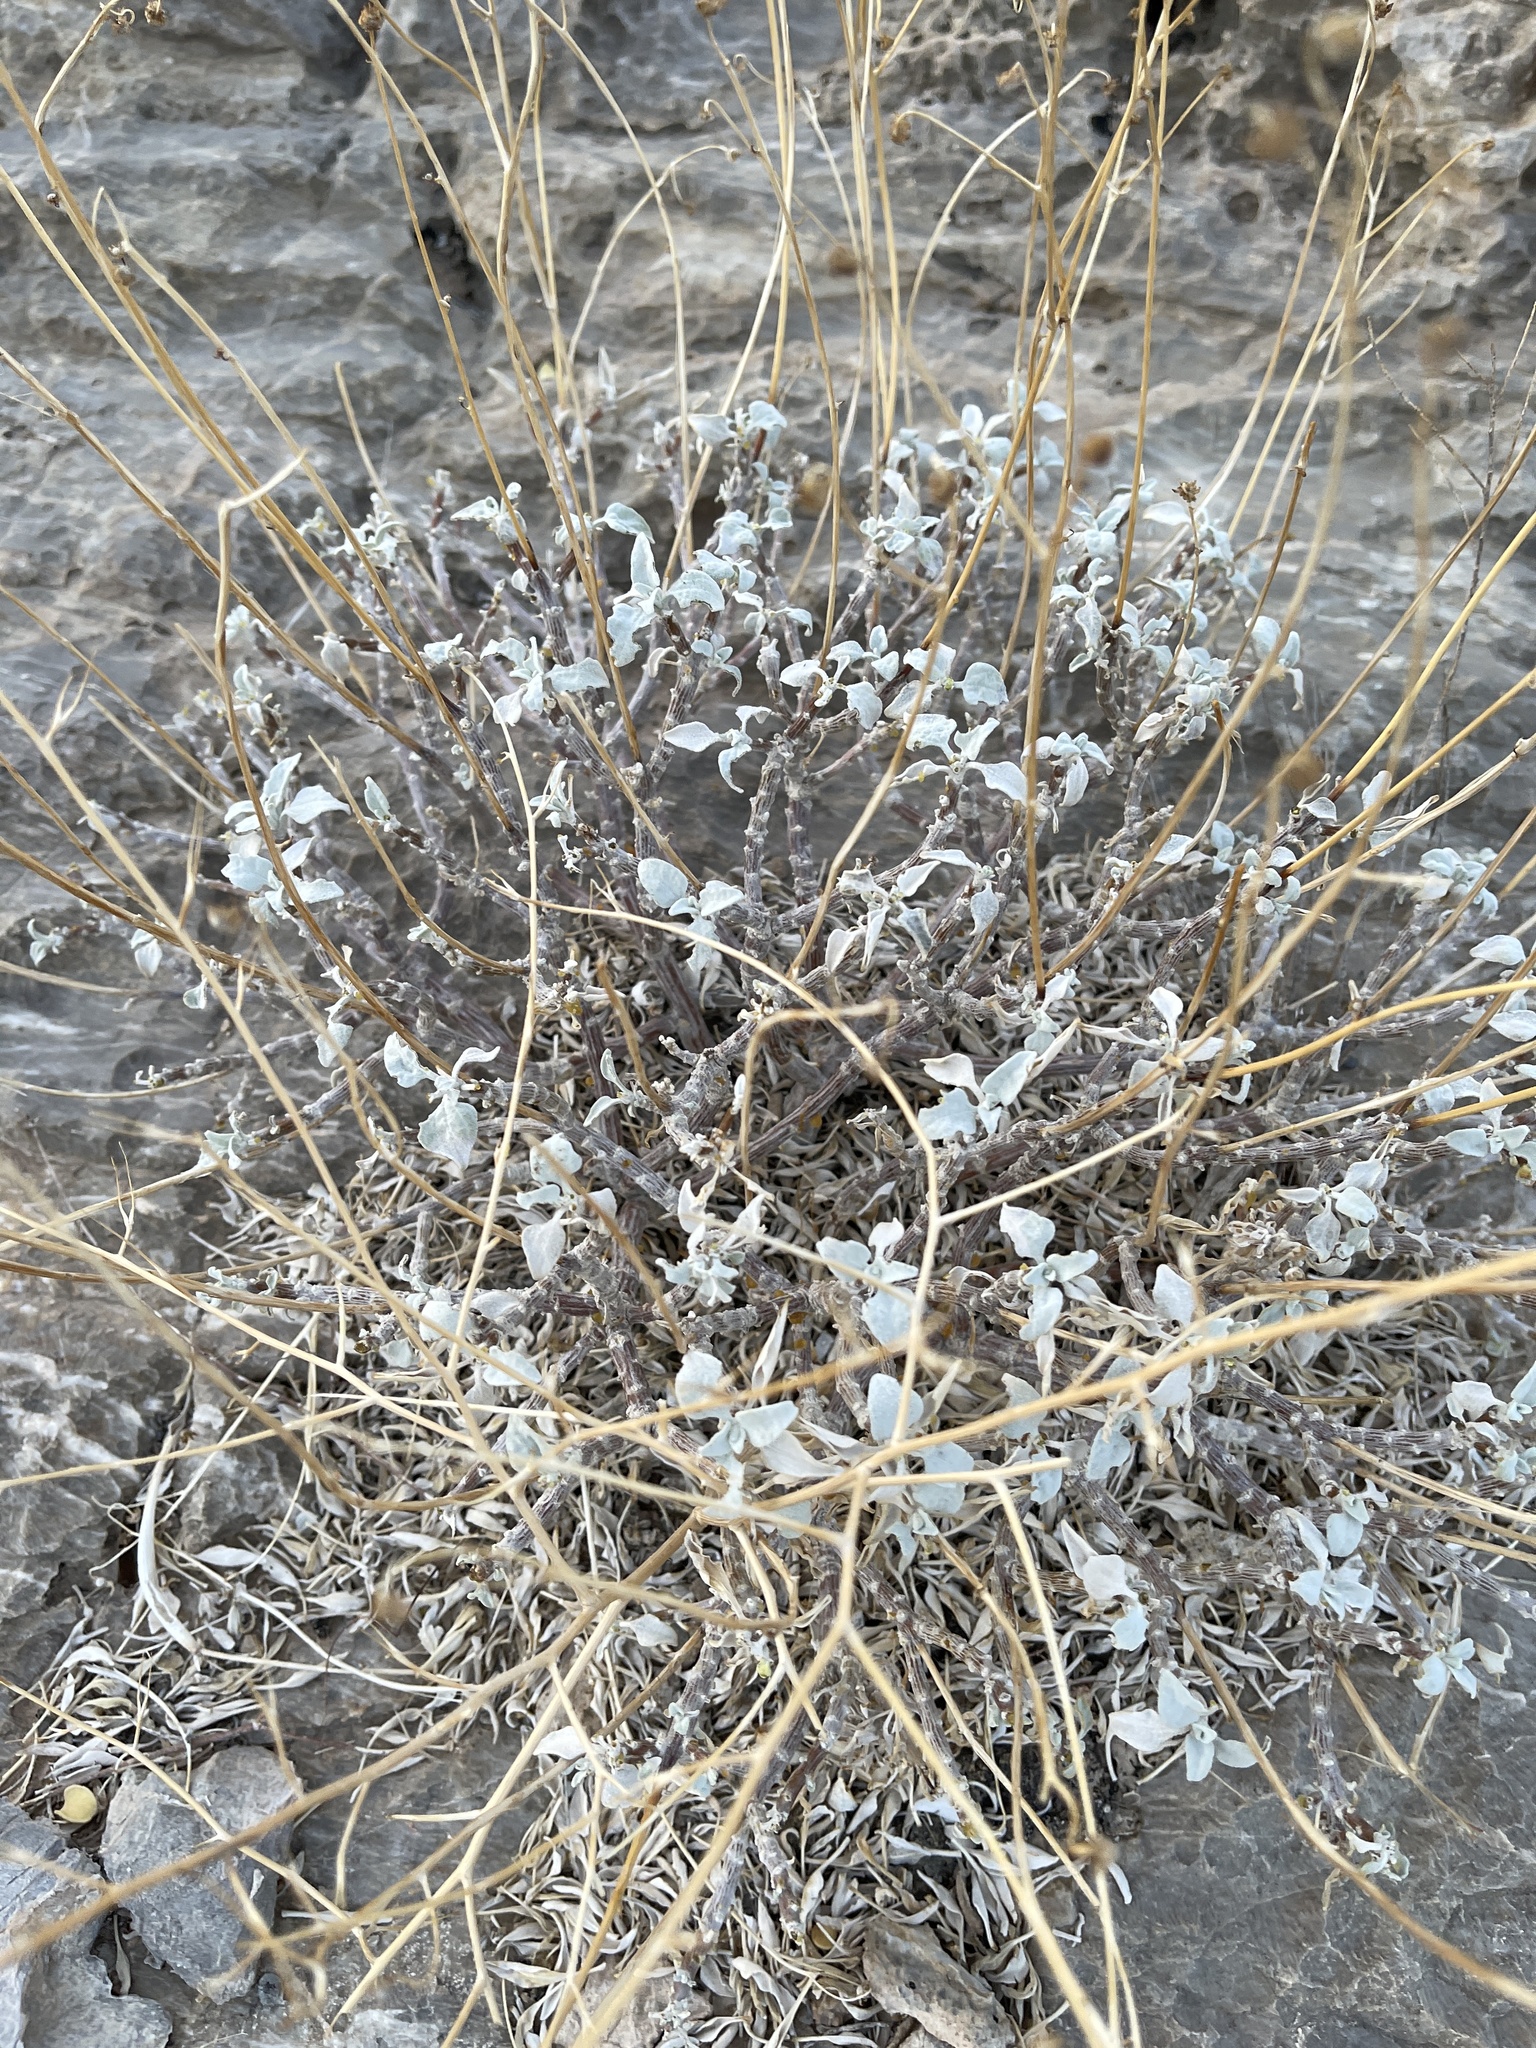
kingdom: Plantae
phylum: Tracheophyta
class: Magnoliopsida
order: Asterales
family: Asteraceae
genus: Encelia
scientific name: Encelia farinosa
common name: Brittlebush
